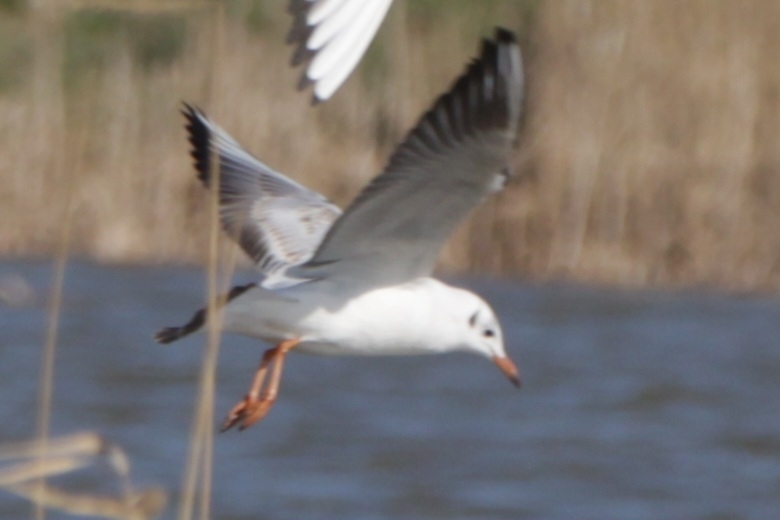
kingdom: Animalia
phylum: Chordata
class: Aves
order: Charadriiformes
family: Laridae
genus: Chroicocephalus
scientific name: Chroicocephalus ridibundus
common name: Black-headed gull
